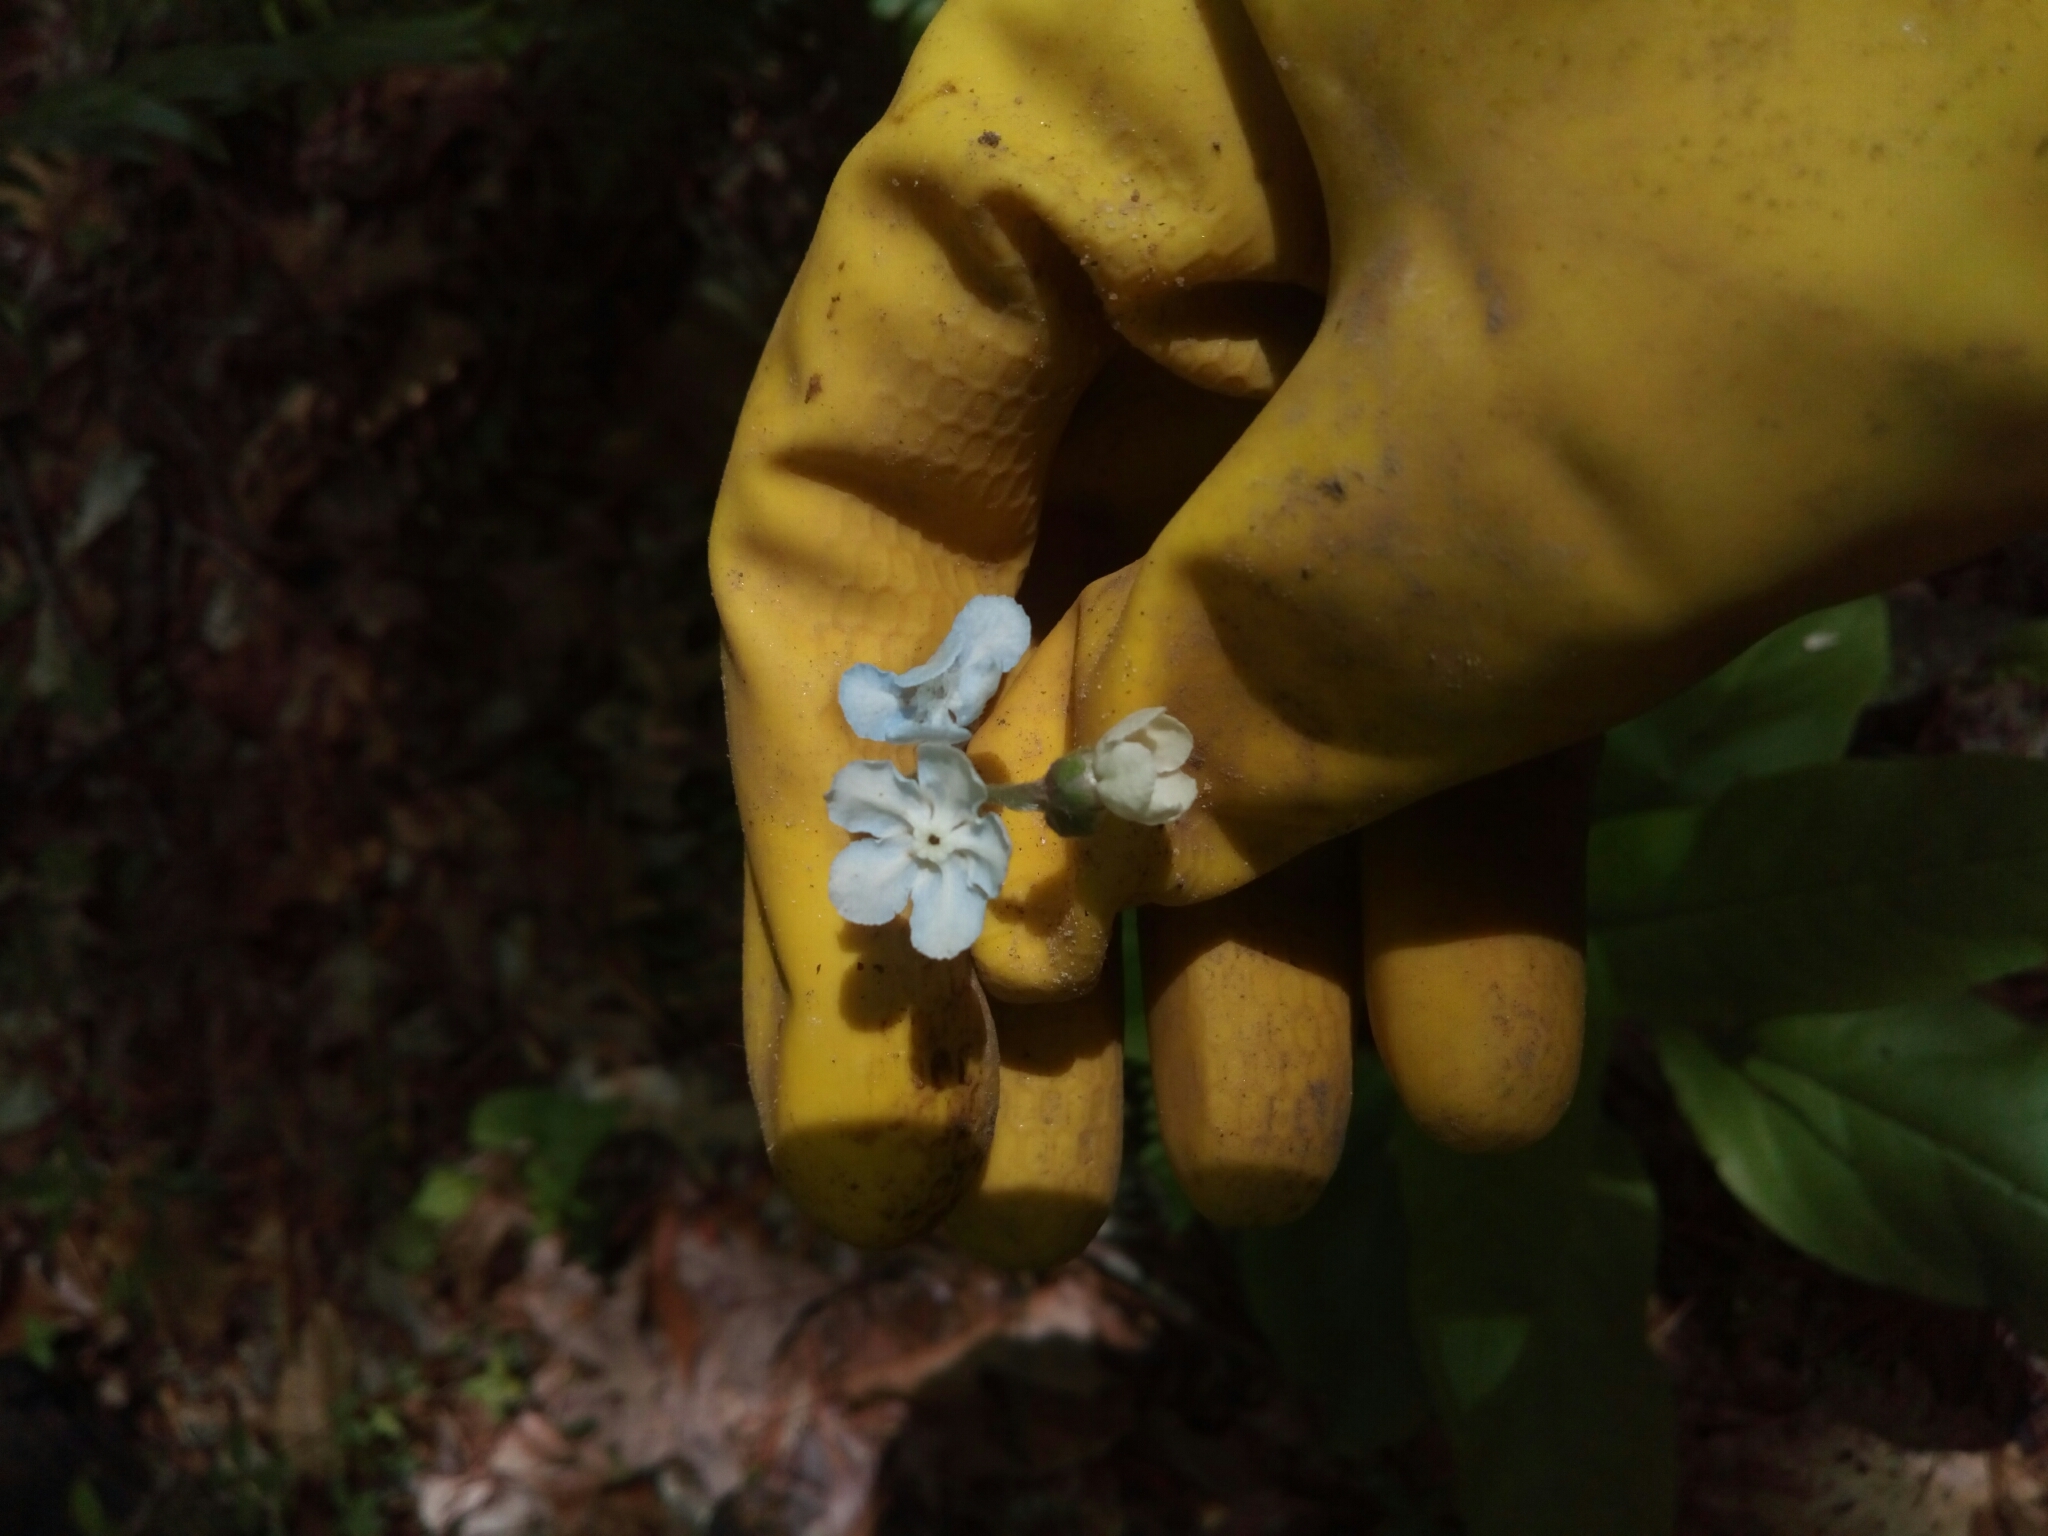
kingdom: Plantae
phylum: Tracheophyta
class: Magnoliopsida
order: Boraginales
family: Boraginaceae
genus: Andersonglossum
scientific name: Andersonglossum virginianum
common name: Wild comfrey
